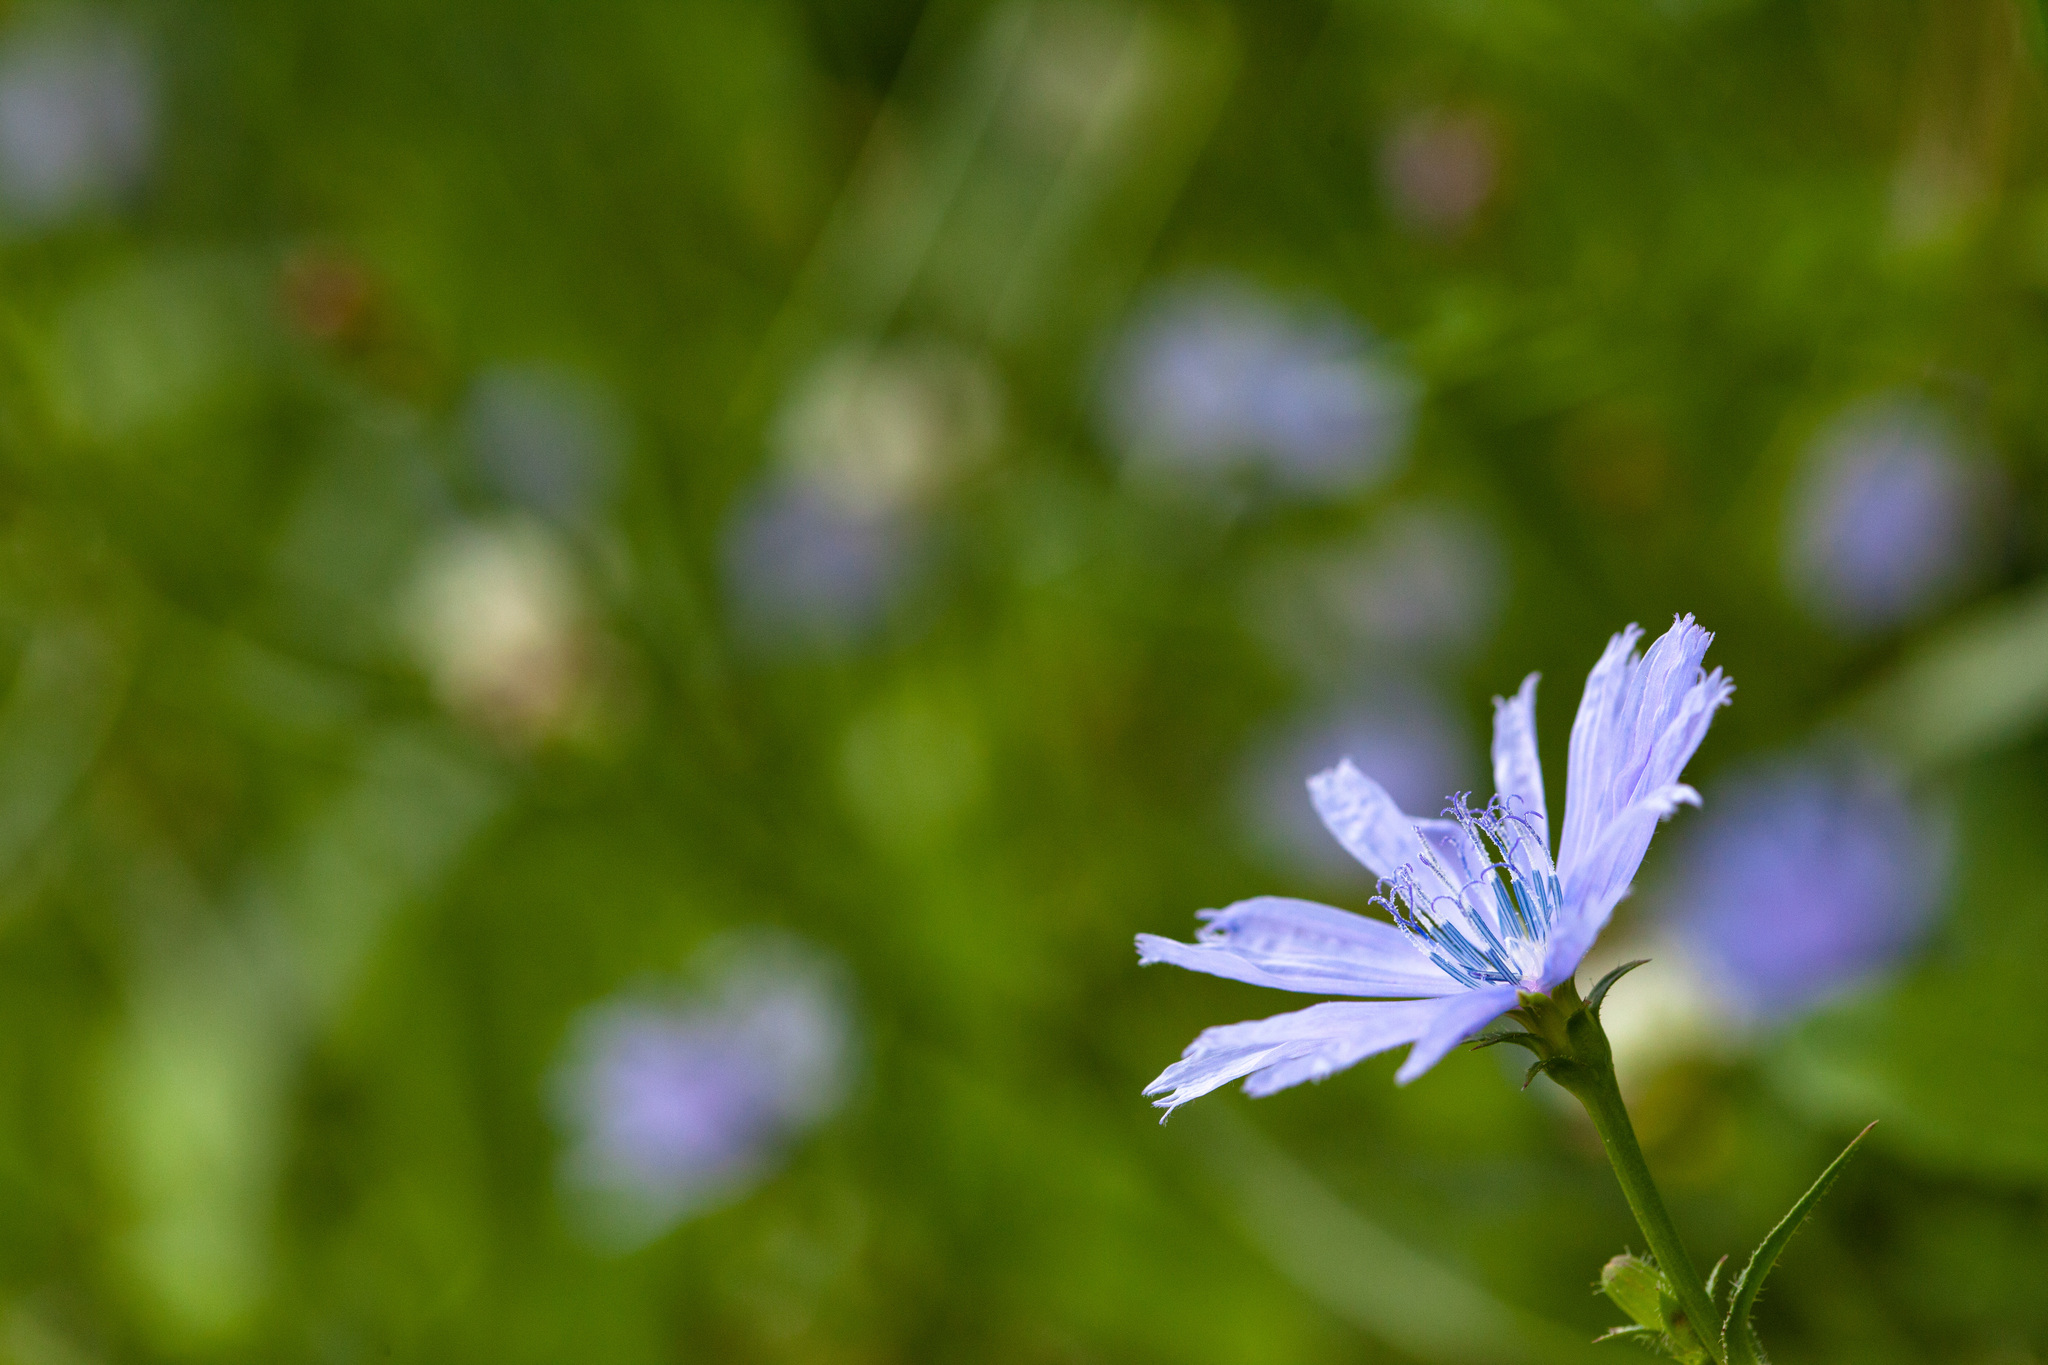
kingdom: Plantae
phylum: Tracheophyta
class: Magnoliopsida
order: Asterales
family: Asteraceae
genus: Cichorium
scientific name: Cichorium intybus
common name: Chicory
